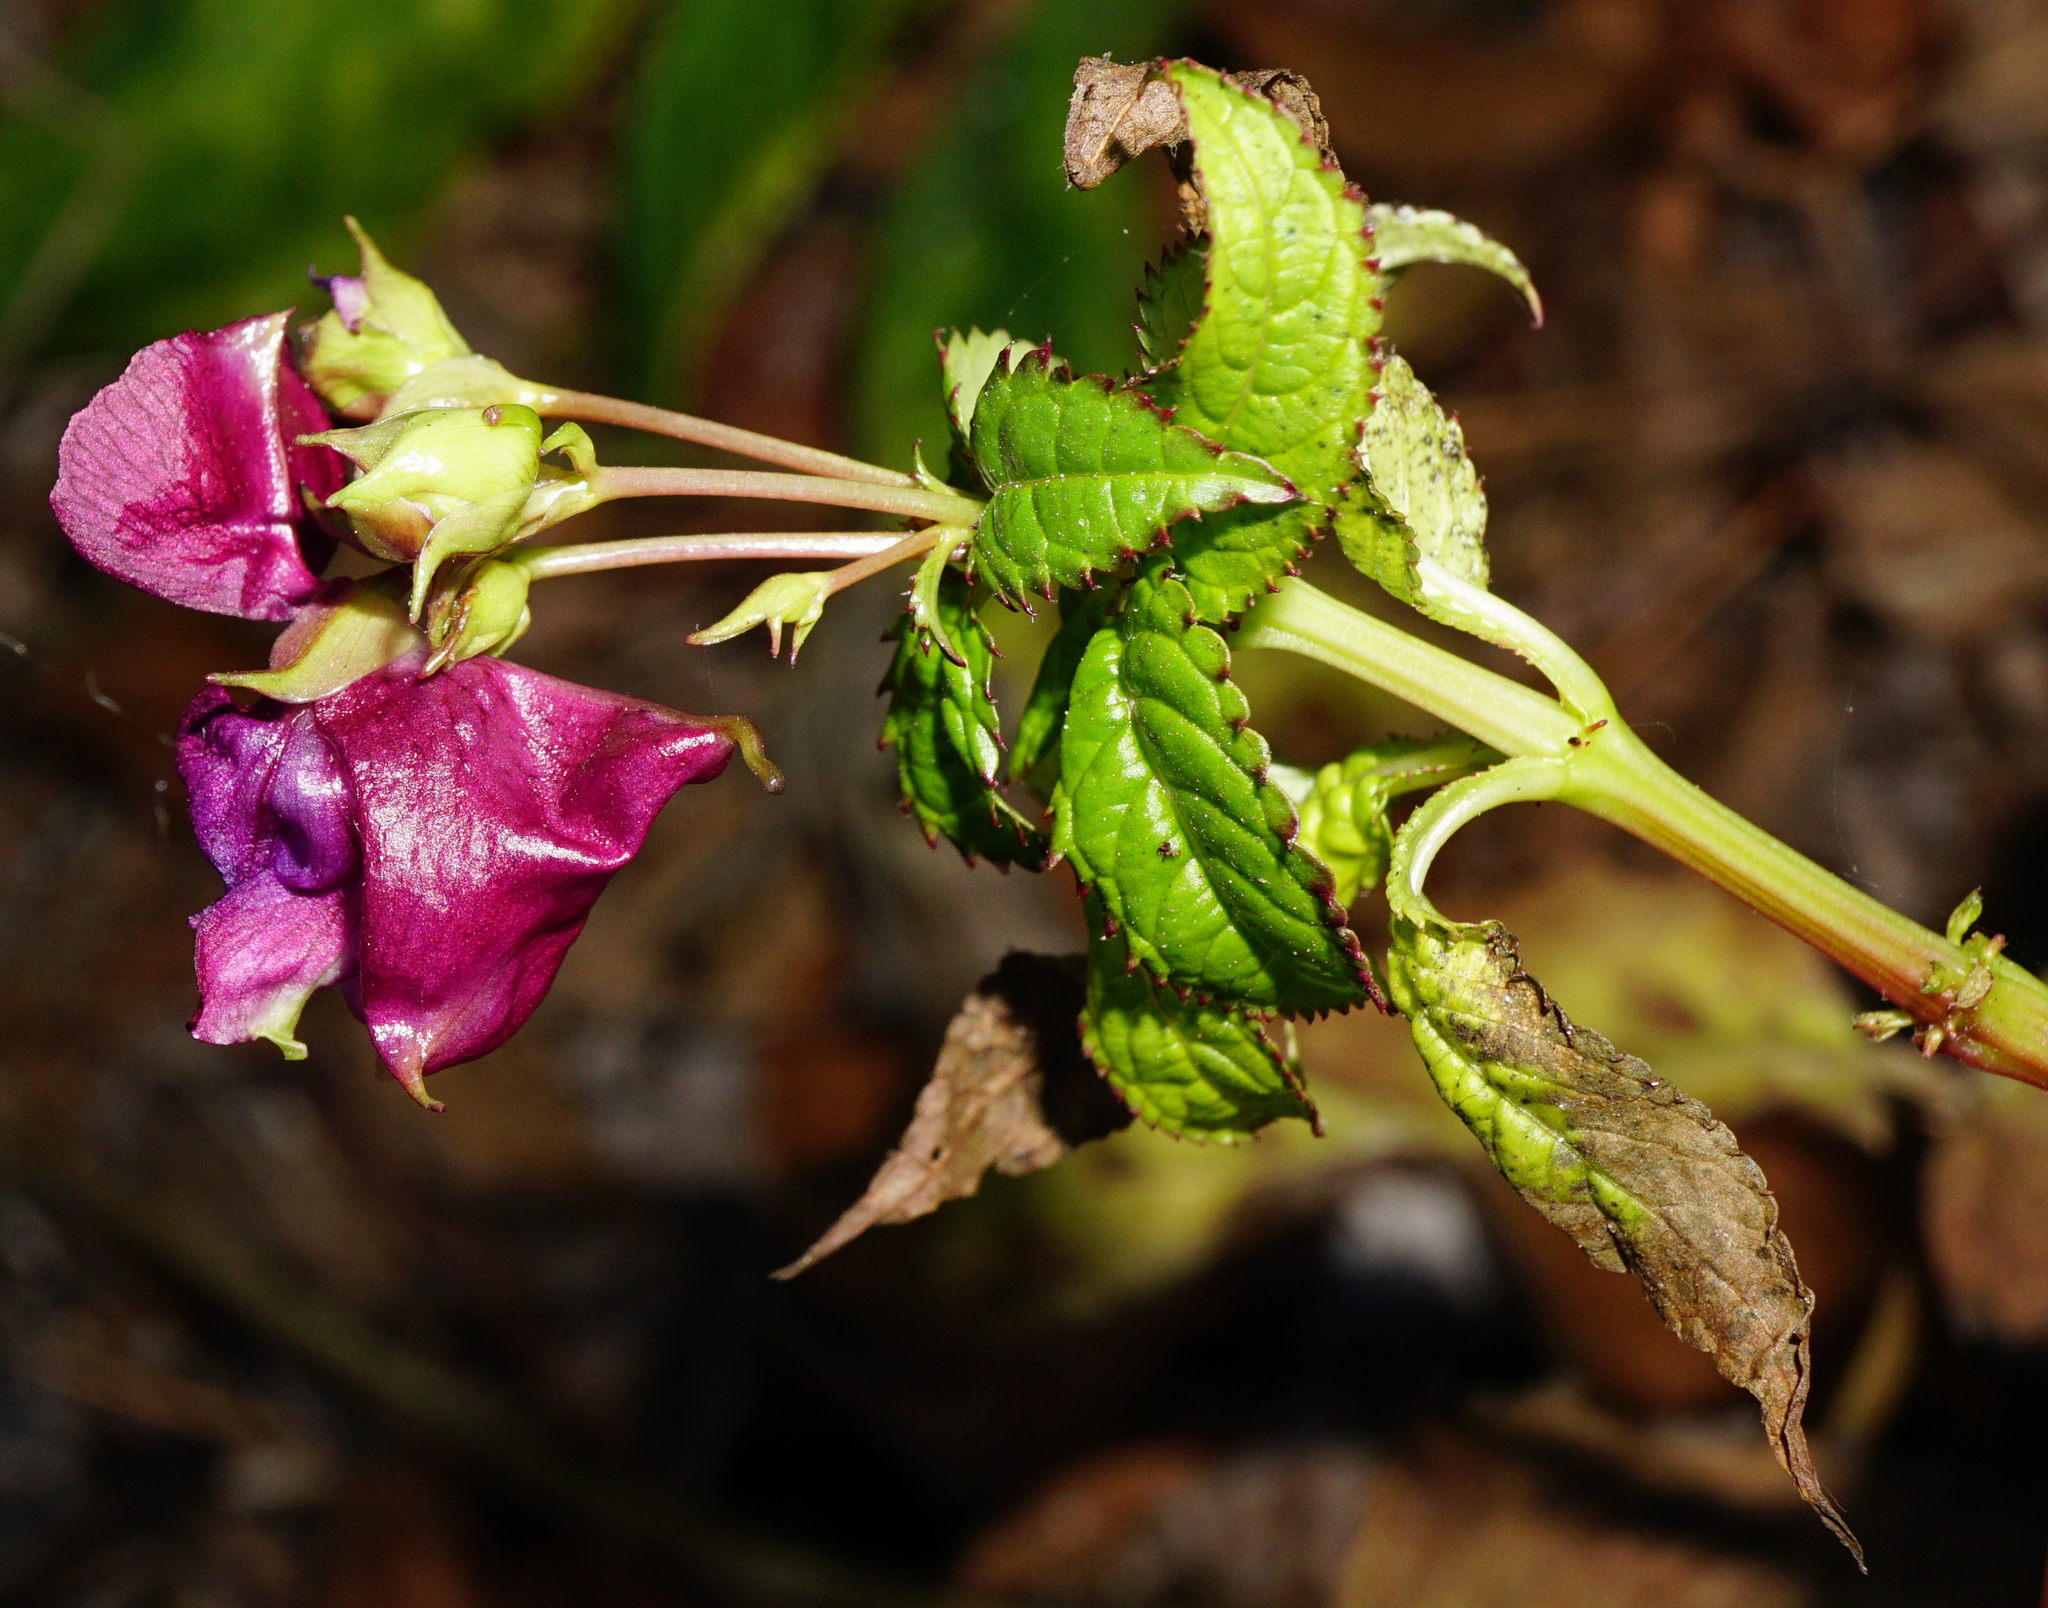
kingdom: Plantae
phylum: Tracheophyta
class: Magnoliopsida
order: Ericales
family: Balsaminaceae
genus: Impatiens
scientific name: Impatiens glandulifera
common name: Himalayan balsam
